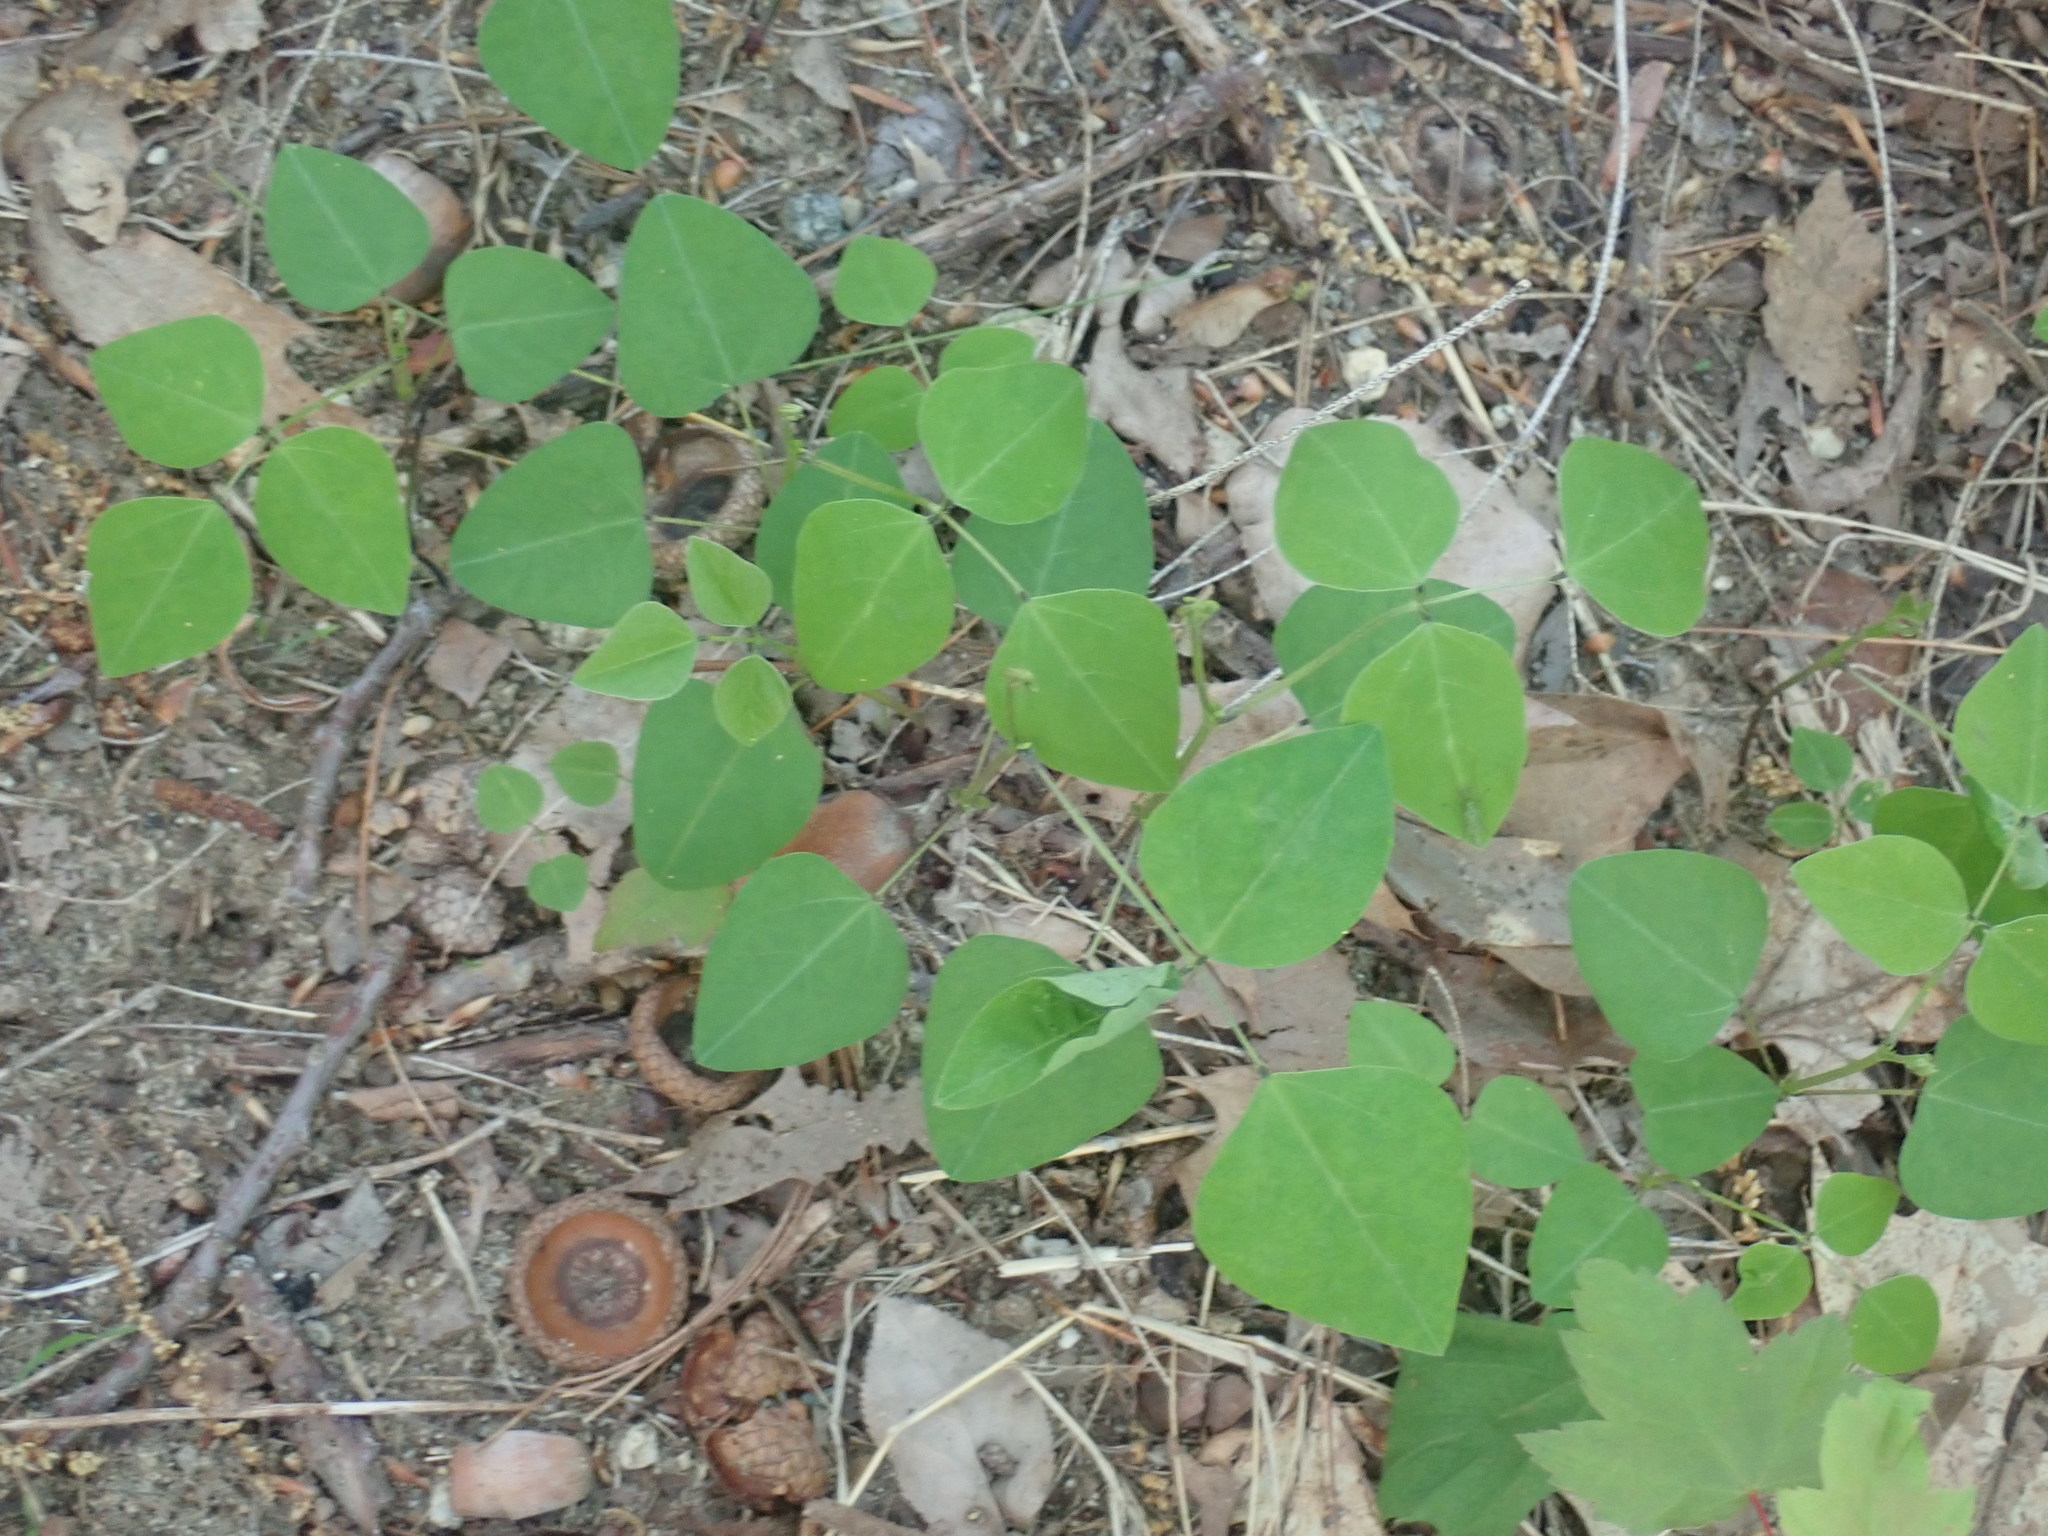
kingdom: Plantae
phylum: Tracheophyta
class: Magnoliopsida
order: Fabales
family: Fabaceae
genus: Amphicarpaea
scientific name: Amphicarpaea bracteata
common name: American hog peanut
